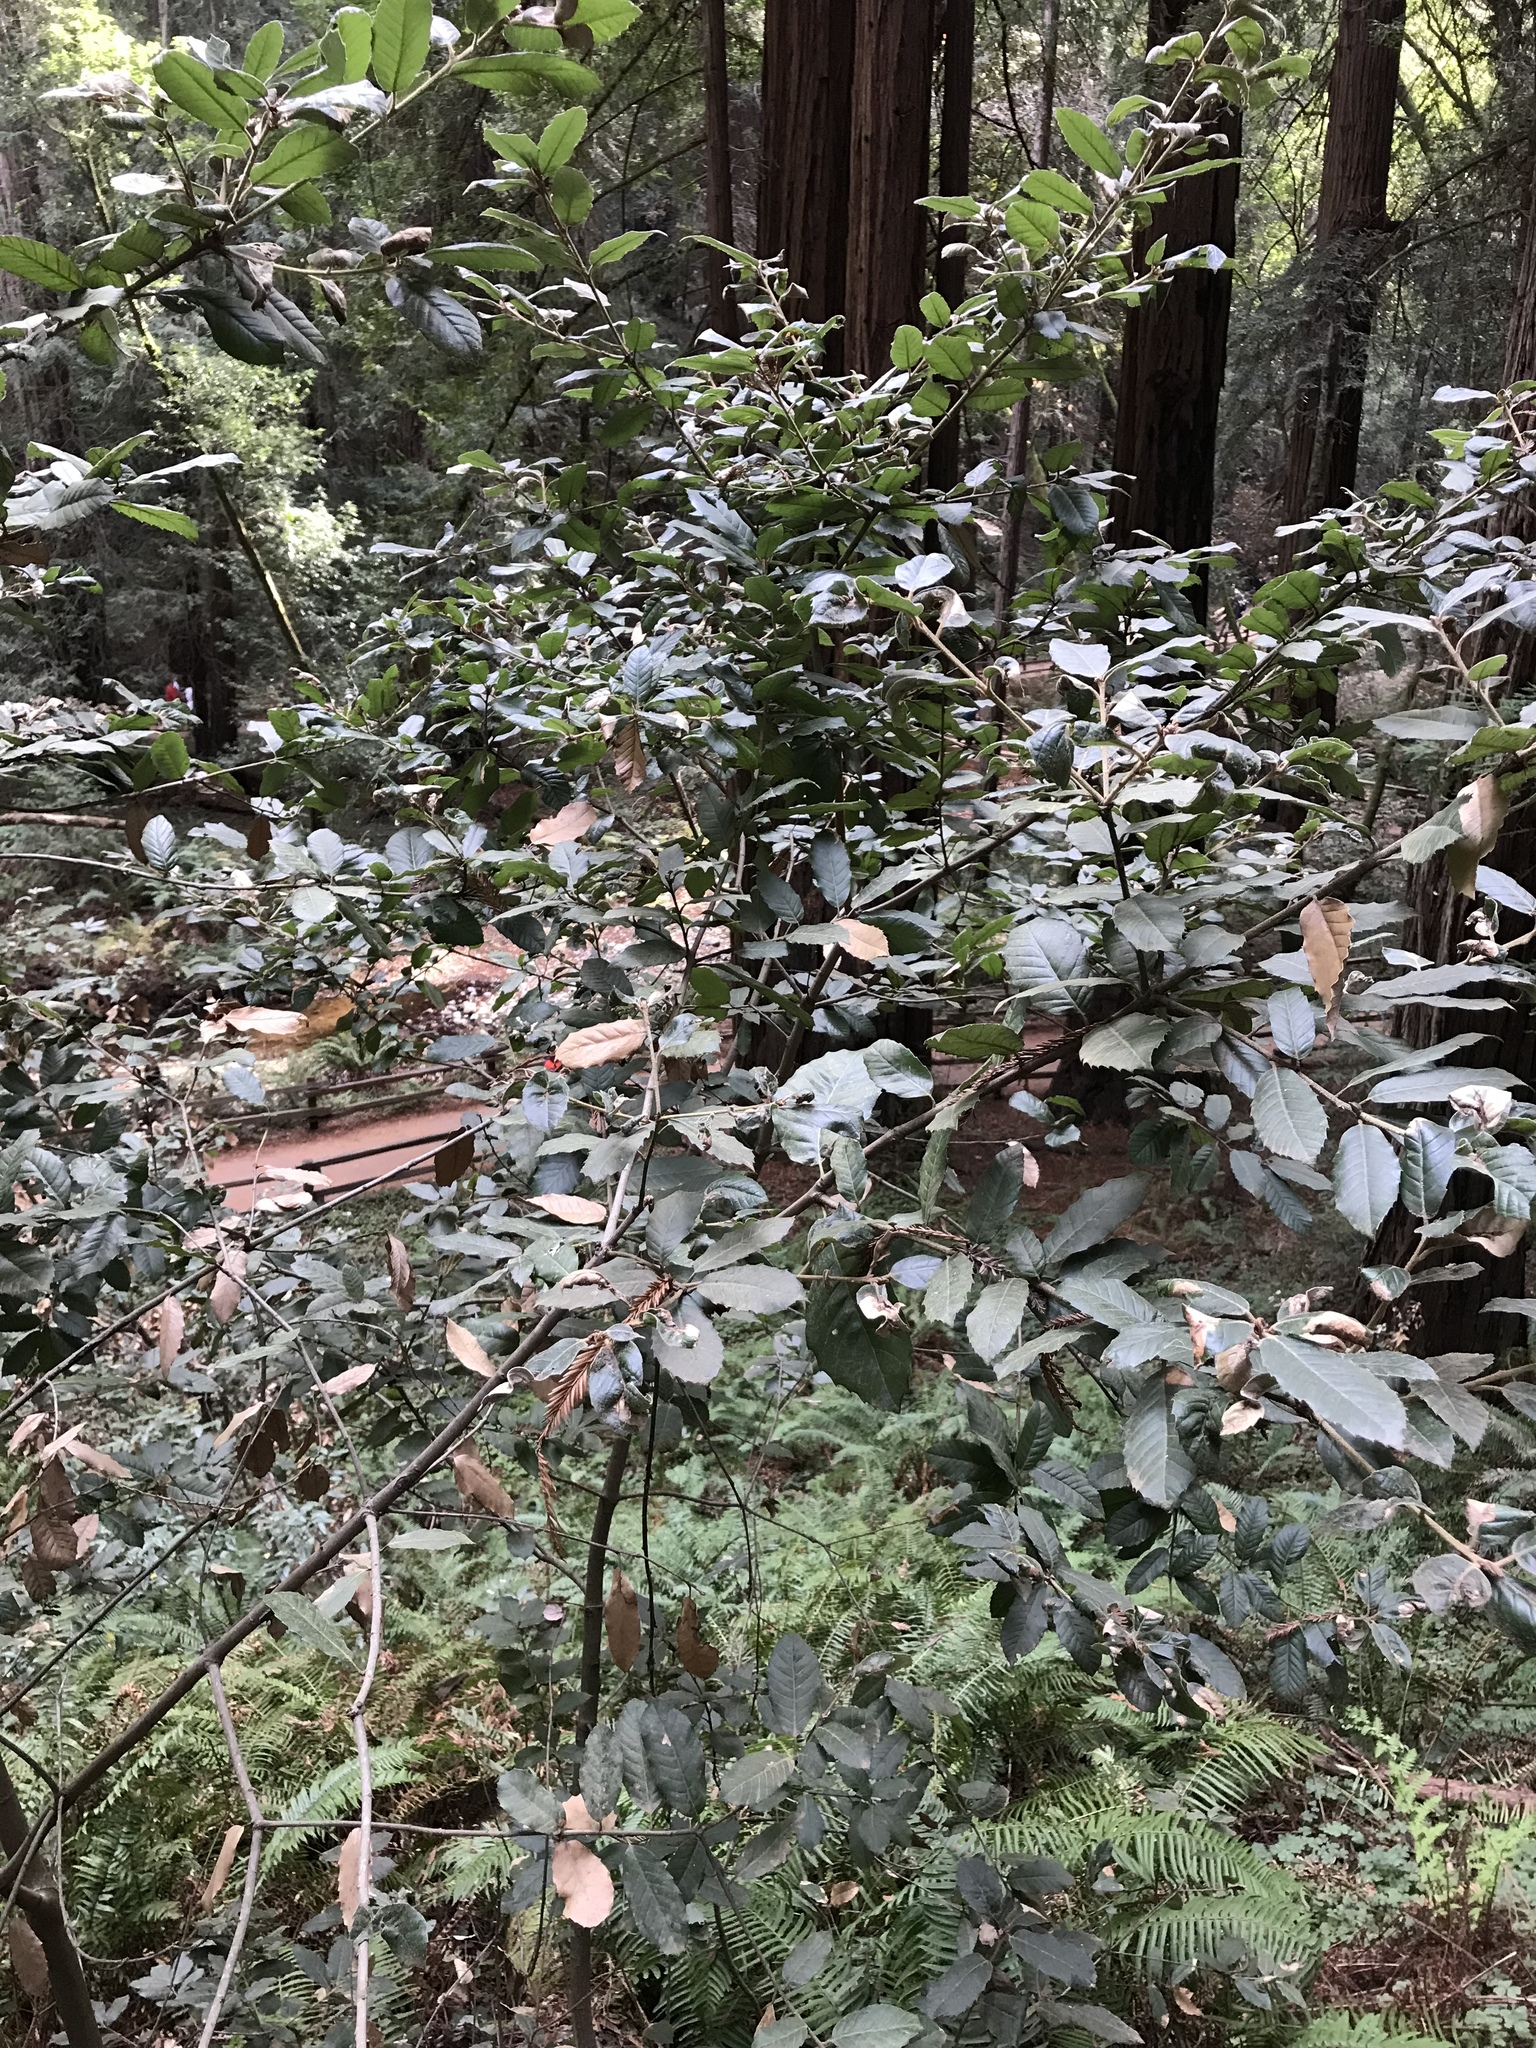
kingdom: Plantae
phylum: Tracheophyta
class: Magnoliopsida
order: Fagales
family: Fagaceae
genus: Notholithocarpus
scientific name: Notholithocarpus densiflorus
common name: Tan bark oak
